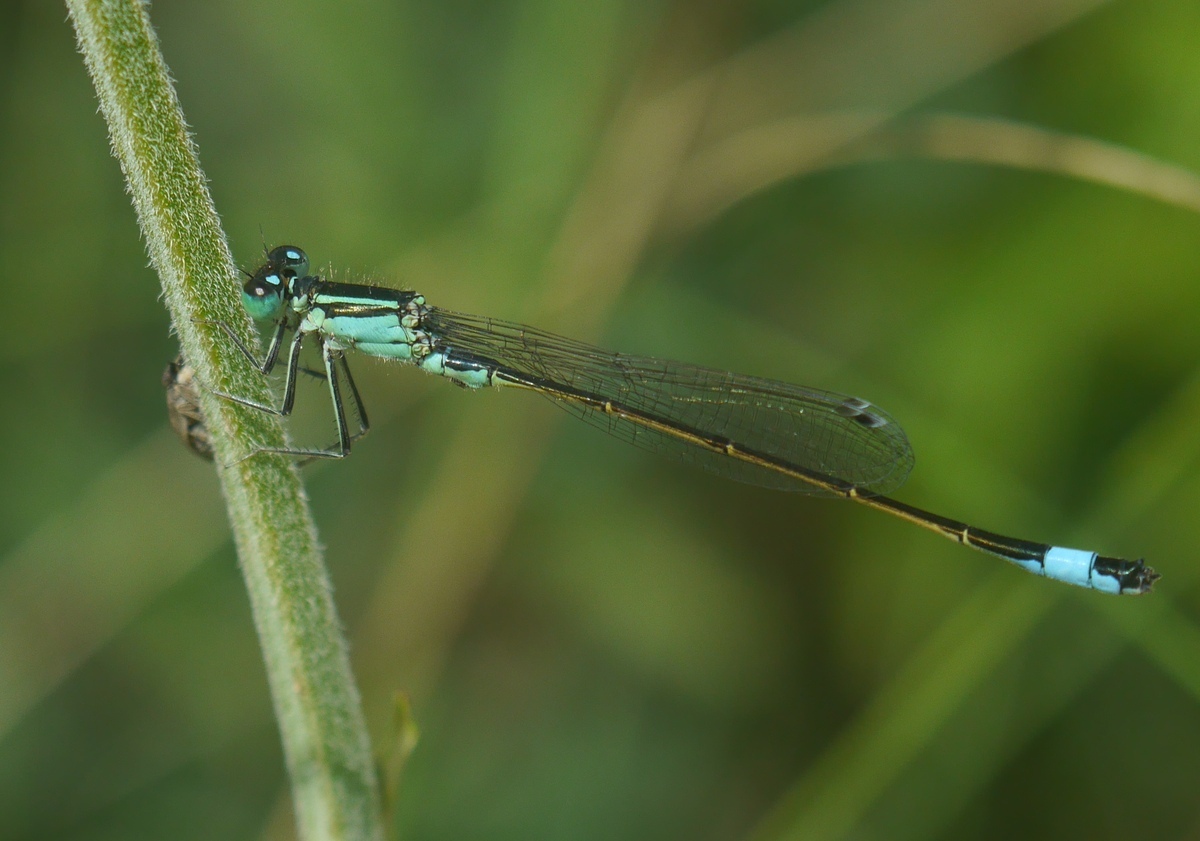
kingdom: Animalia
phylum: Arthropoda
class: Insecta
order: Odonata
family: Coenagrionidae
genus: Ischnura
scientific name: Ischnura elegans
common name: Blue-tailed damselfly
